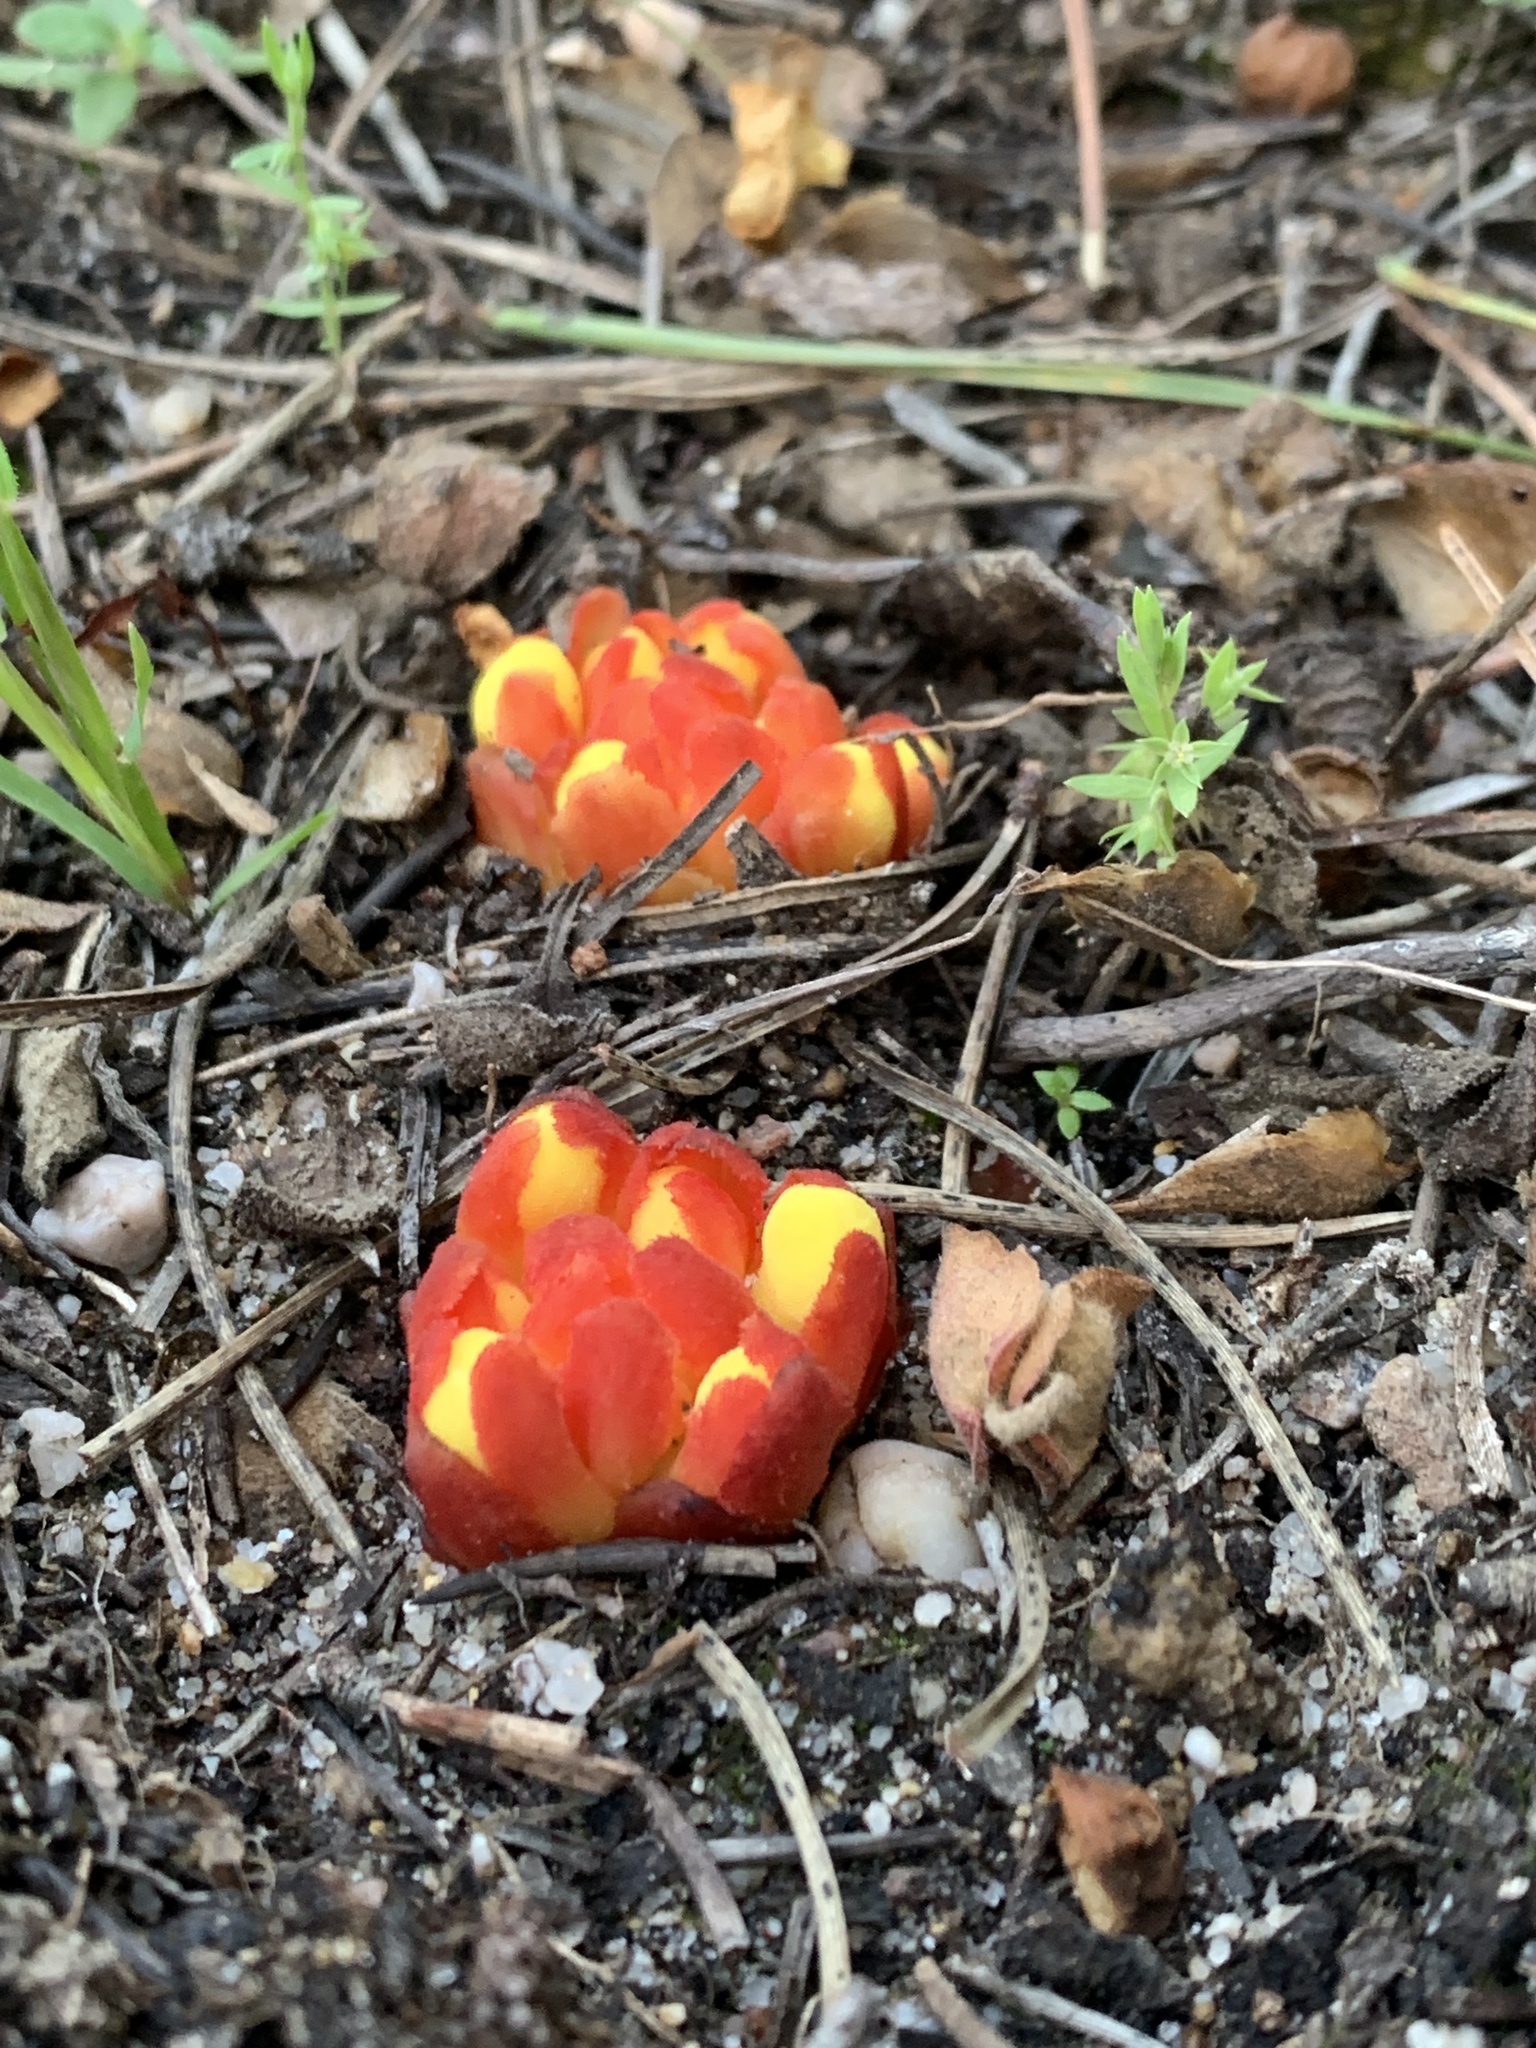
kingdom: Plantae
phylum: Tracheophyta
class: Magnoliopsida
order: Malvales
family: Cytinaceae
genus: Cytinus
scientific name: Cytinus hypocistis
